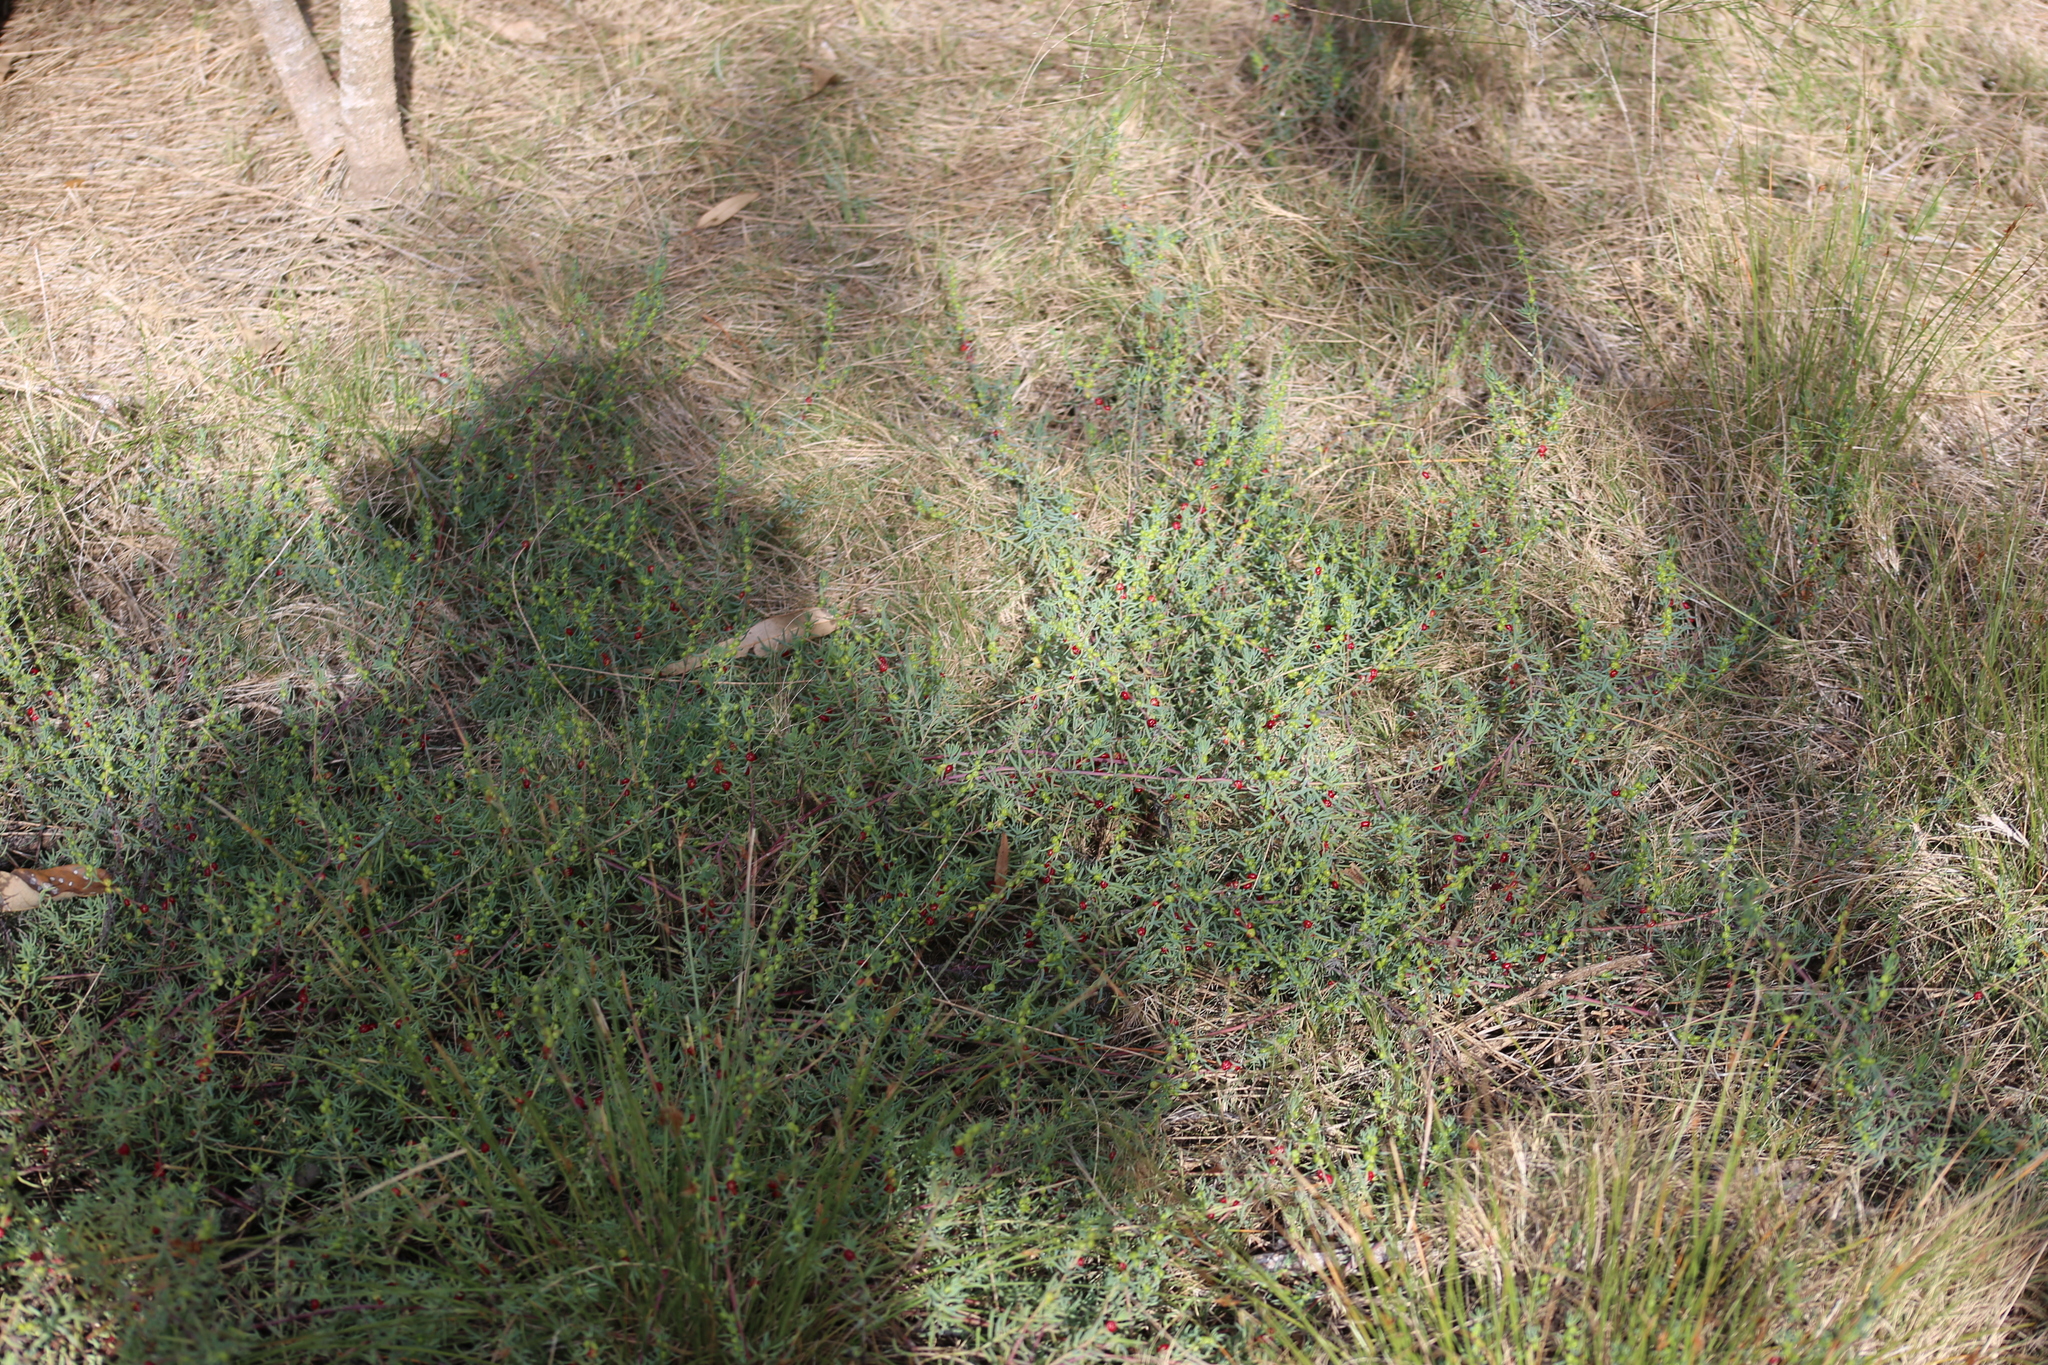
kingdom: Plantae
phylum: Tracheophyta
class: Magnoliopsida
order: Caryophyllales
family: Amaranthaceae
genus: Enchylaena
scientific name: Enchylaena tomentosa
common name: Ruby saltbush
